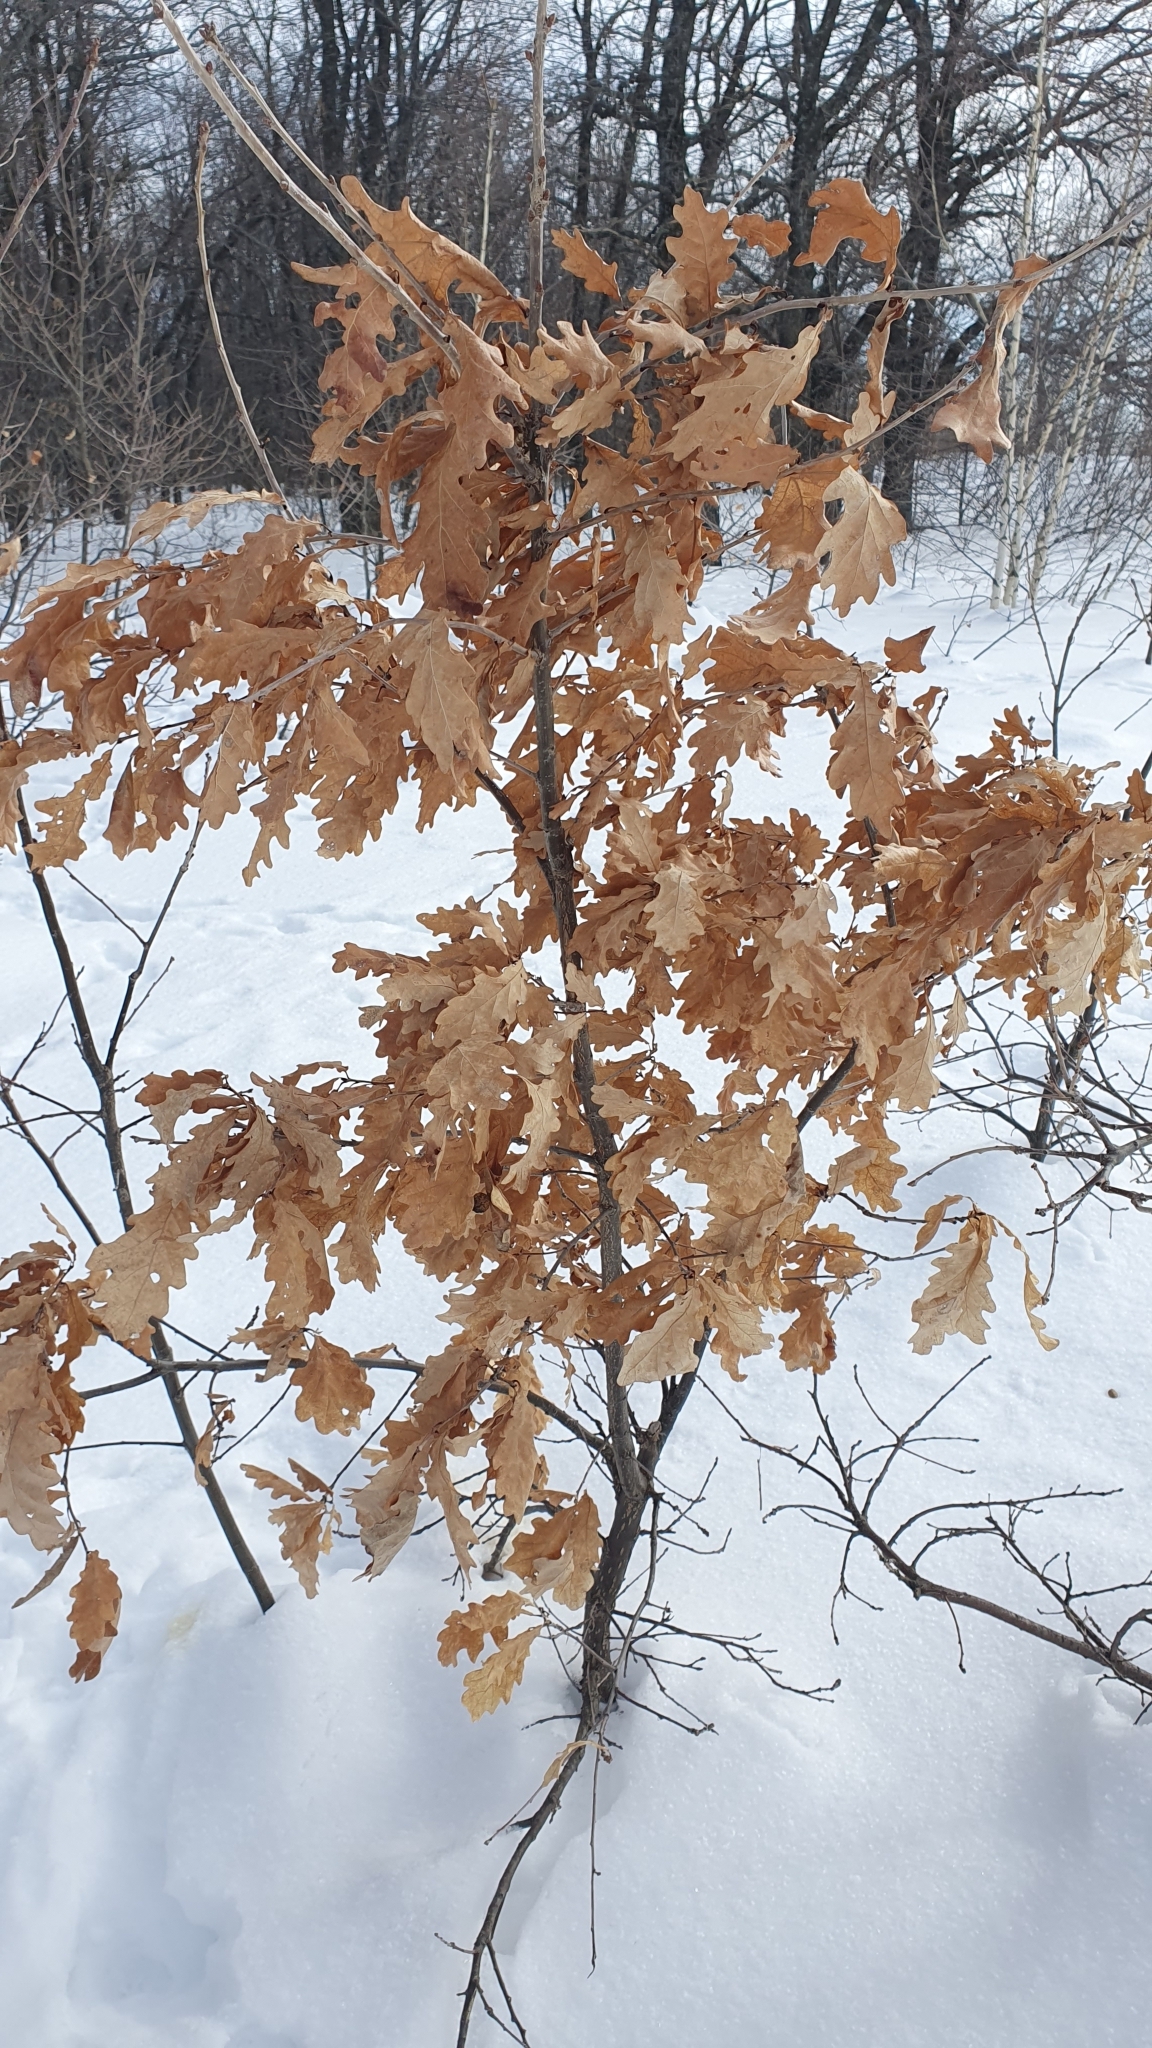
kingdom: Plantae
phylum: Tracheophyta
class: Magnoliopsida
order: Fagales
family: Fagaceae
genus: Quercus
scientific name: Quercus robur
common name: Pedunculate oak
